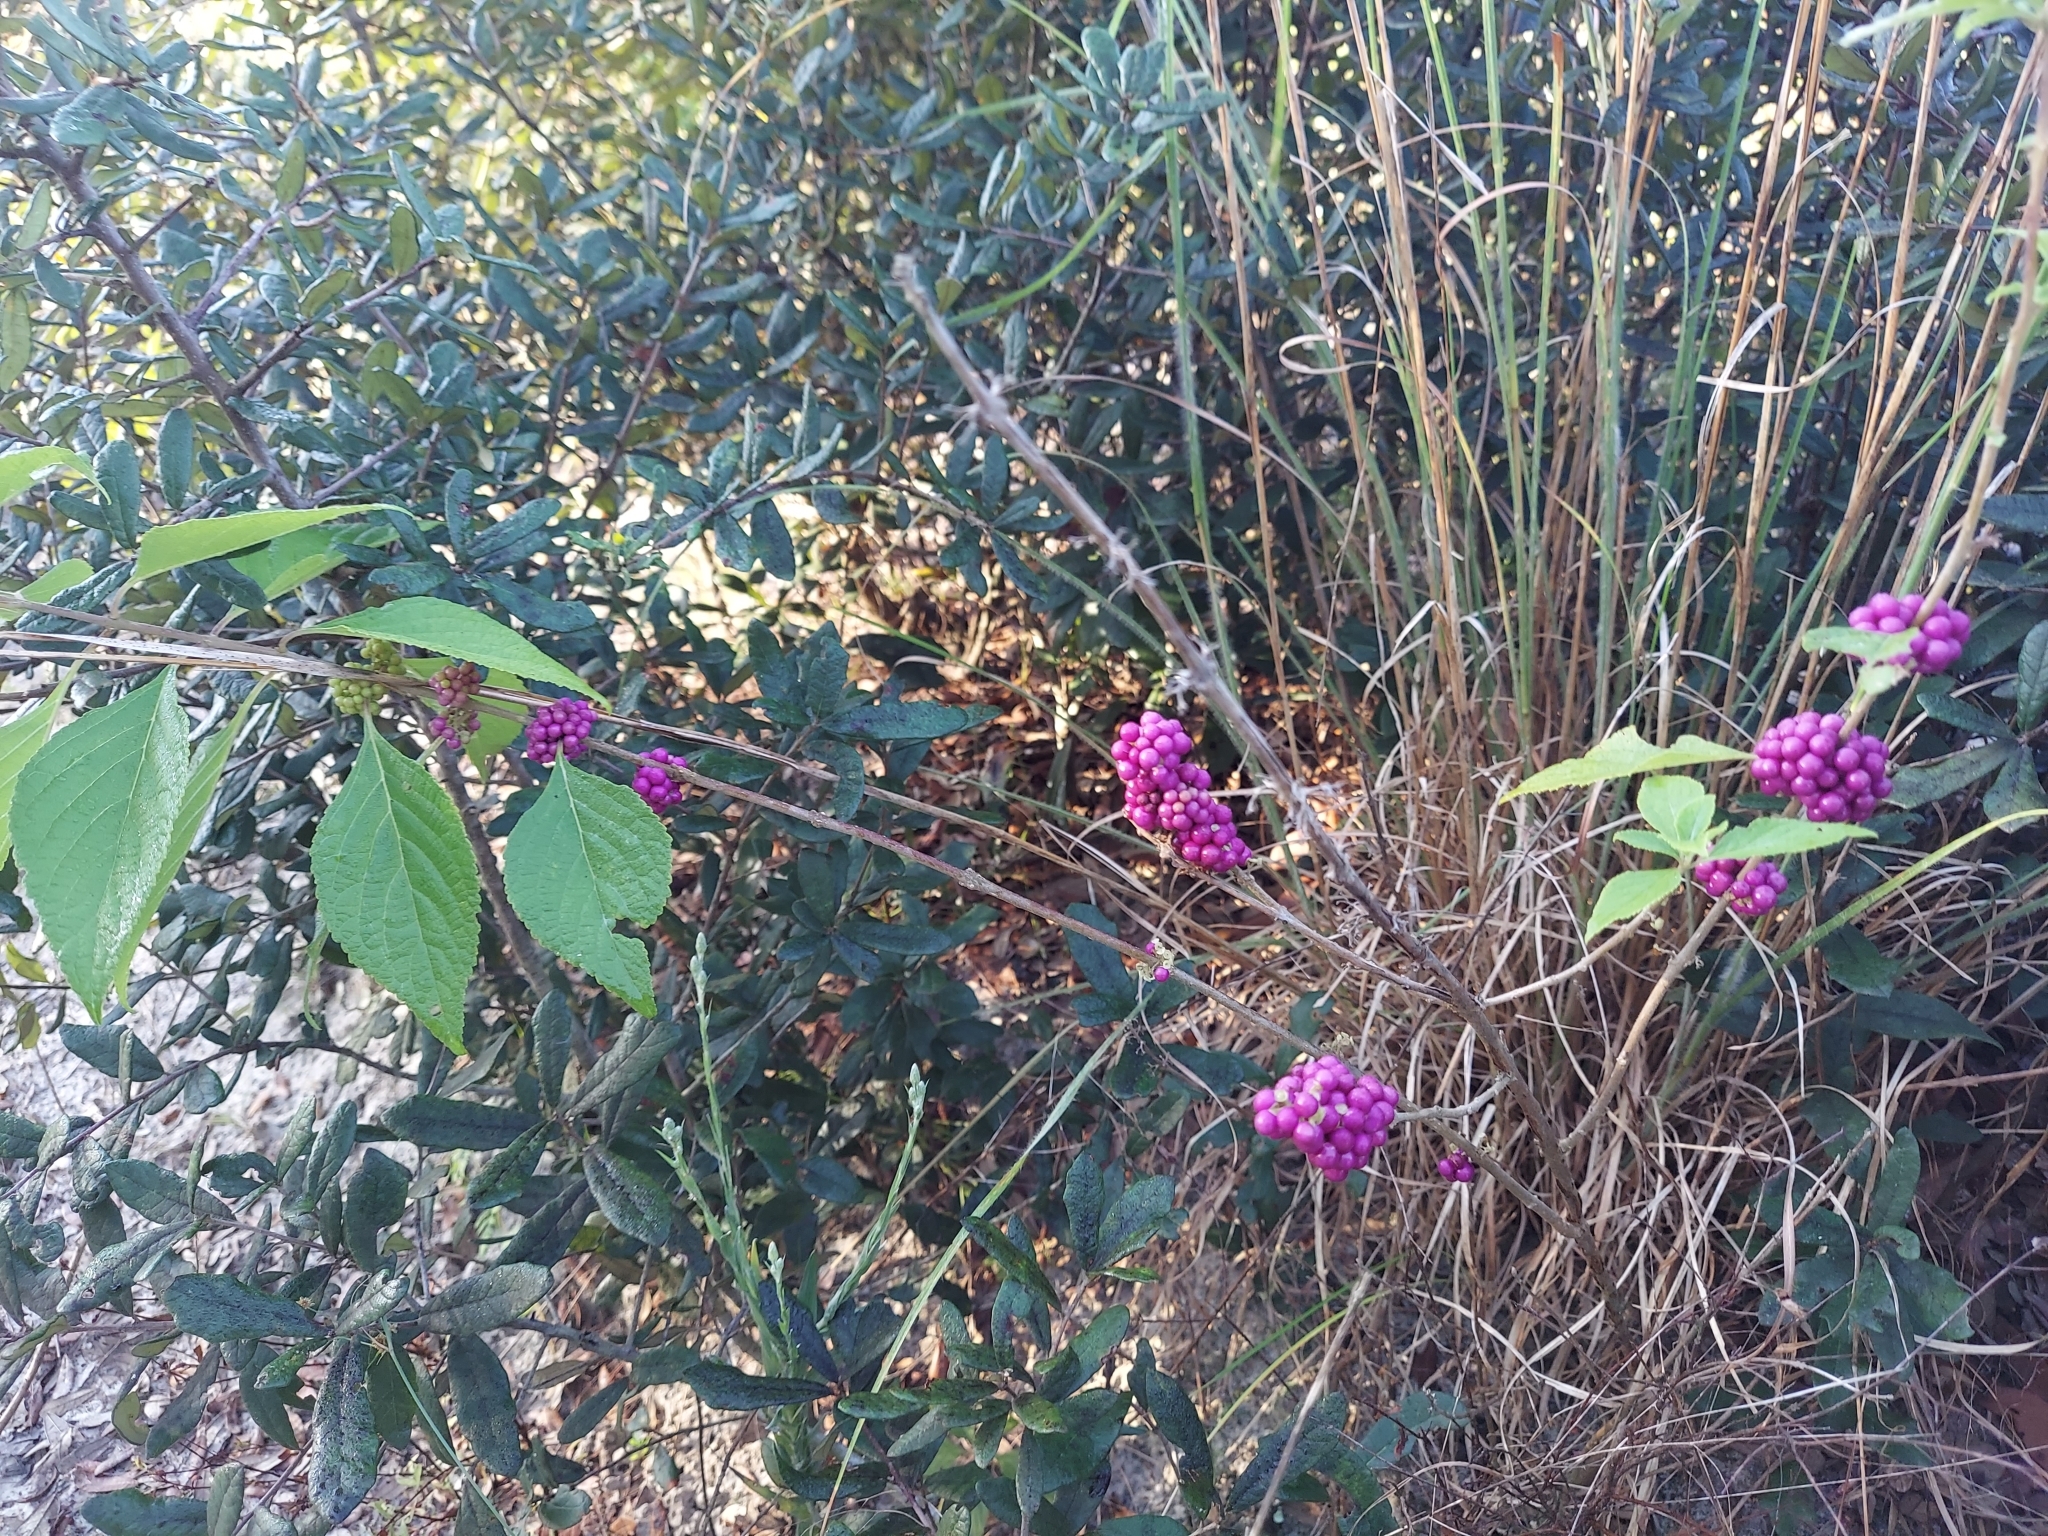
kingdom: Plantae
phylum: Tracheophyta
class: Magnoliopsida
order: Lamiales
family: Lamiaceae
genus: Callicarpa
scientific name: Callicarpa americana
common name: American beautyberry
